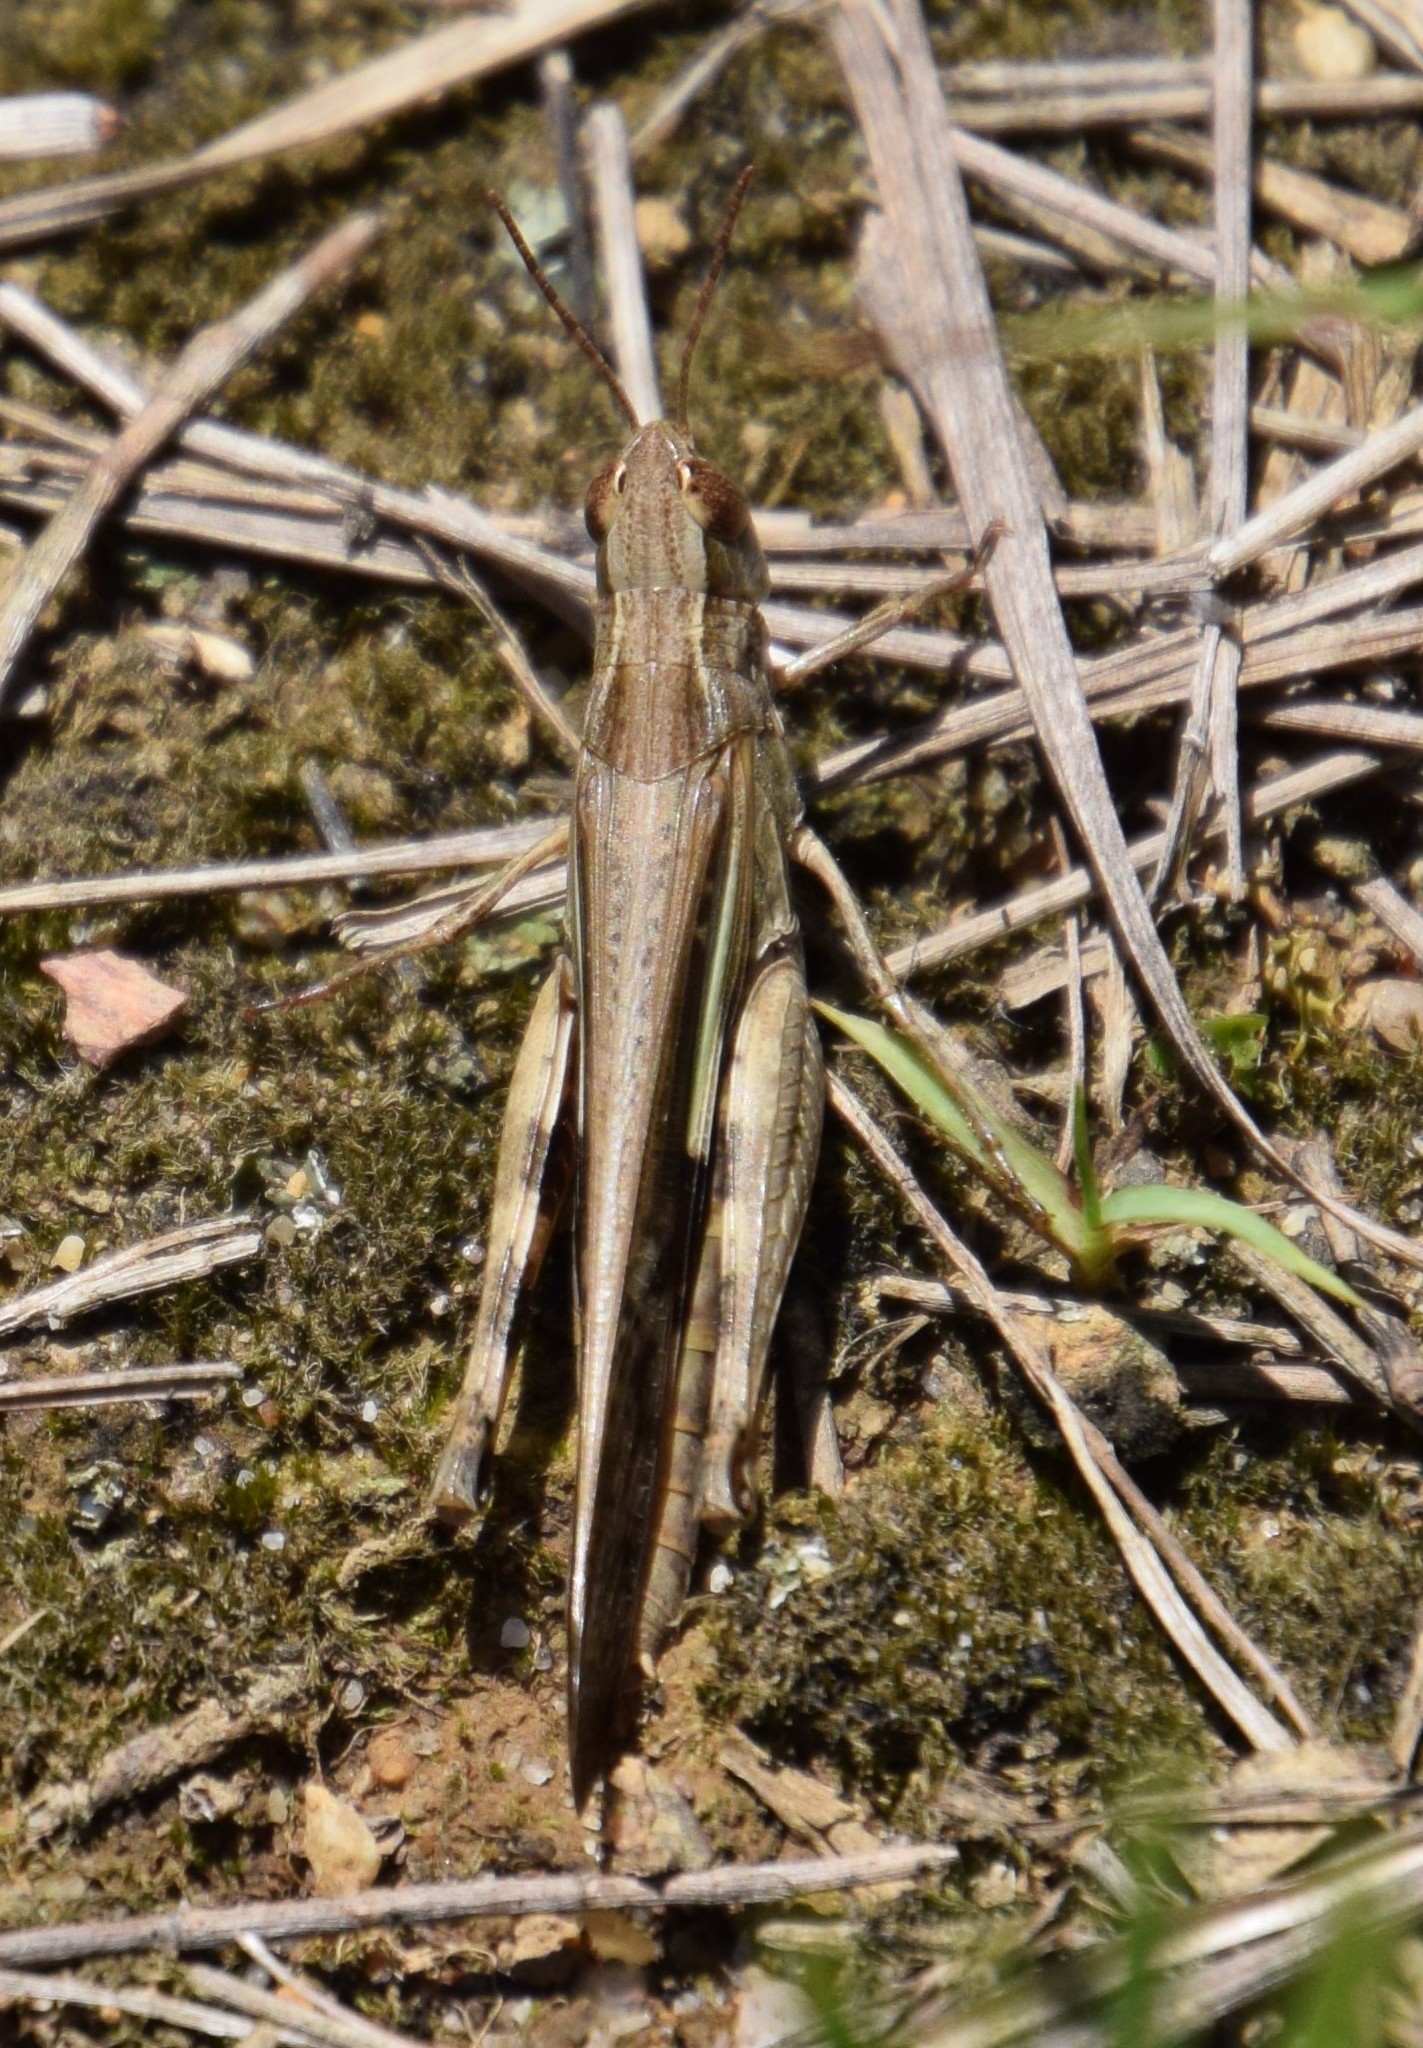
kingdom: Animalia
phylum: Arthropoda
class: Insecta
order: Orthoptera
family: Acrididae
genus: Aiolopus
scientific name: Aiolopus thalassinus
